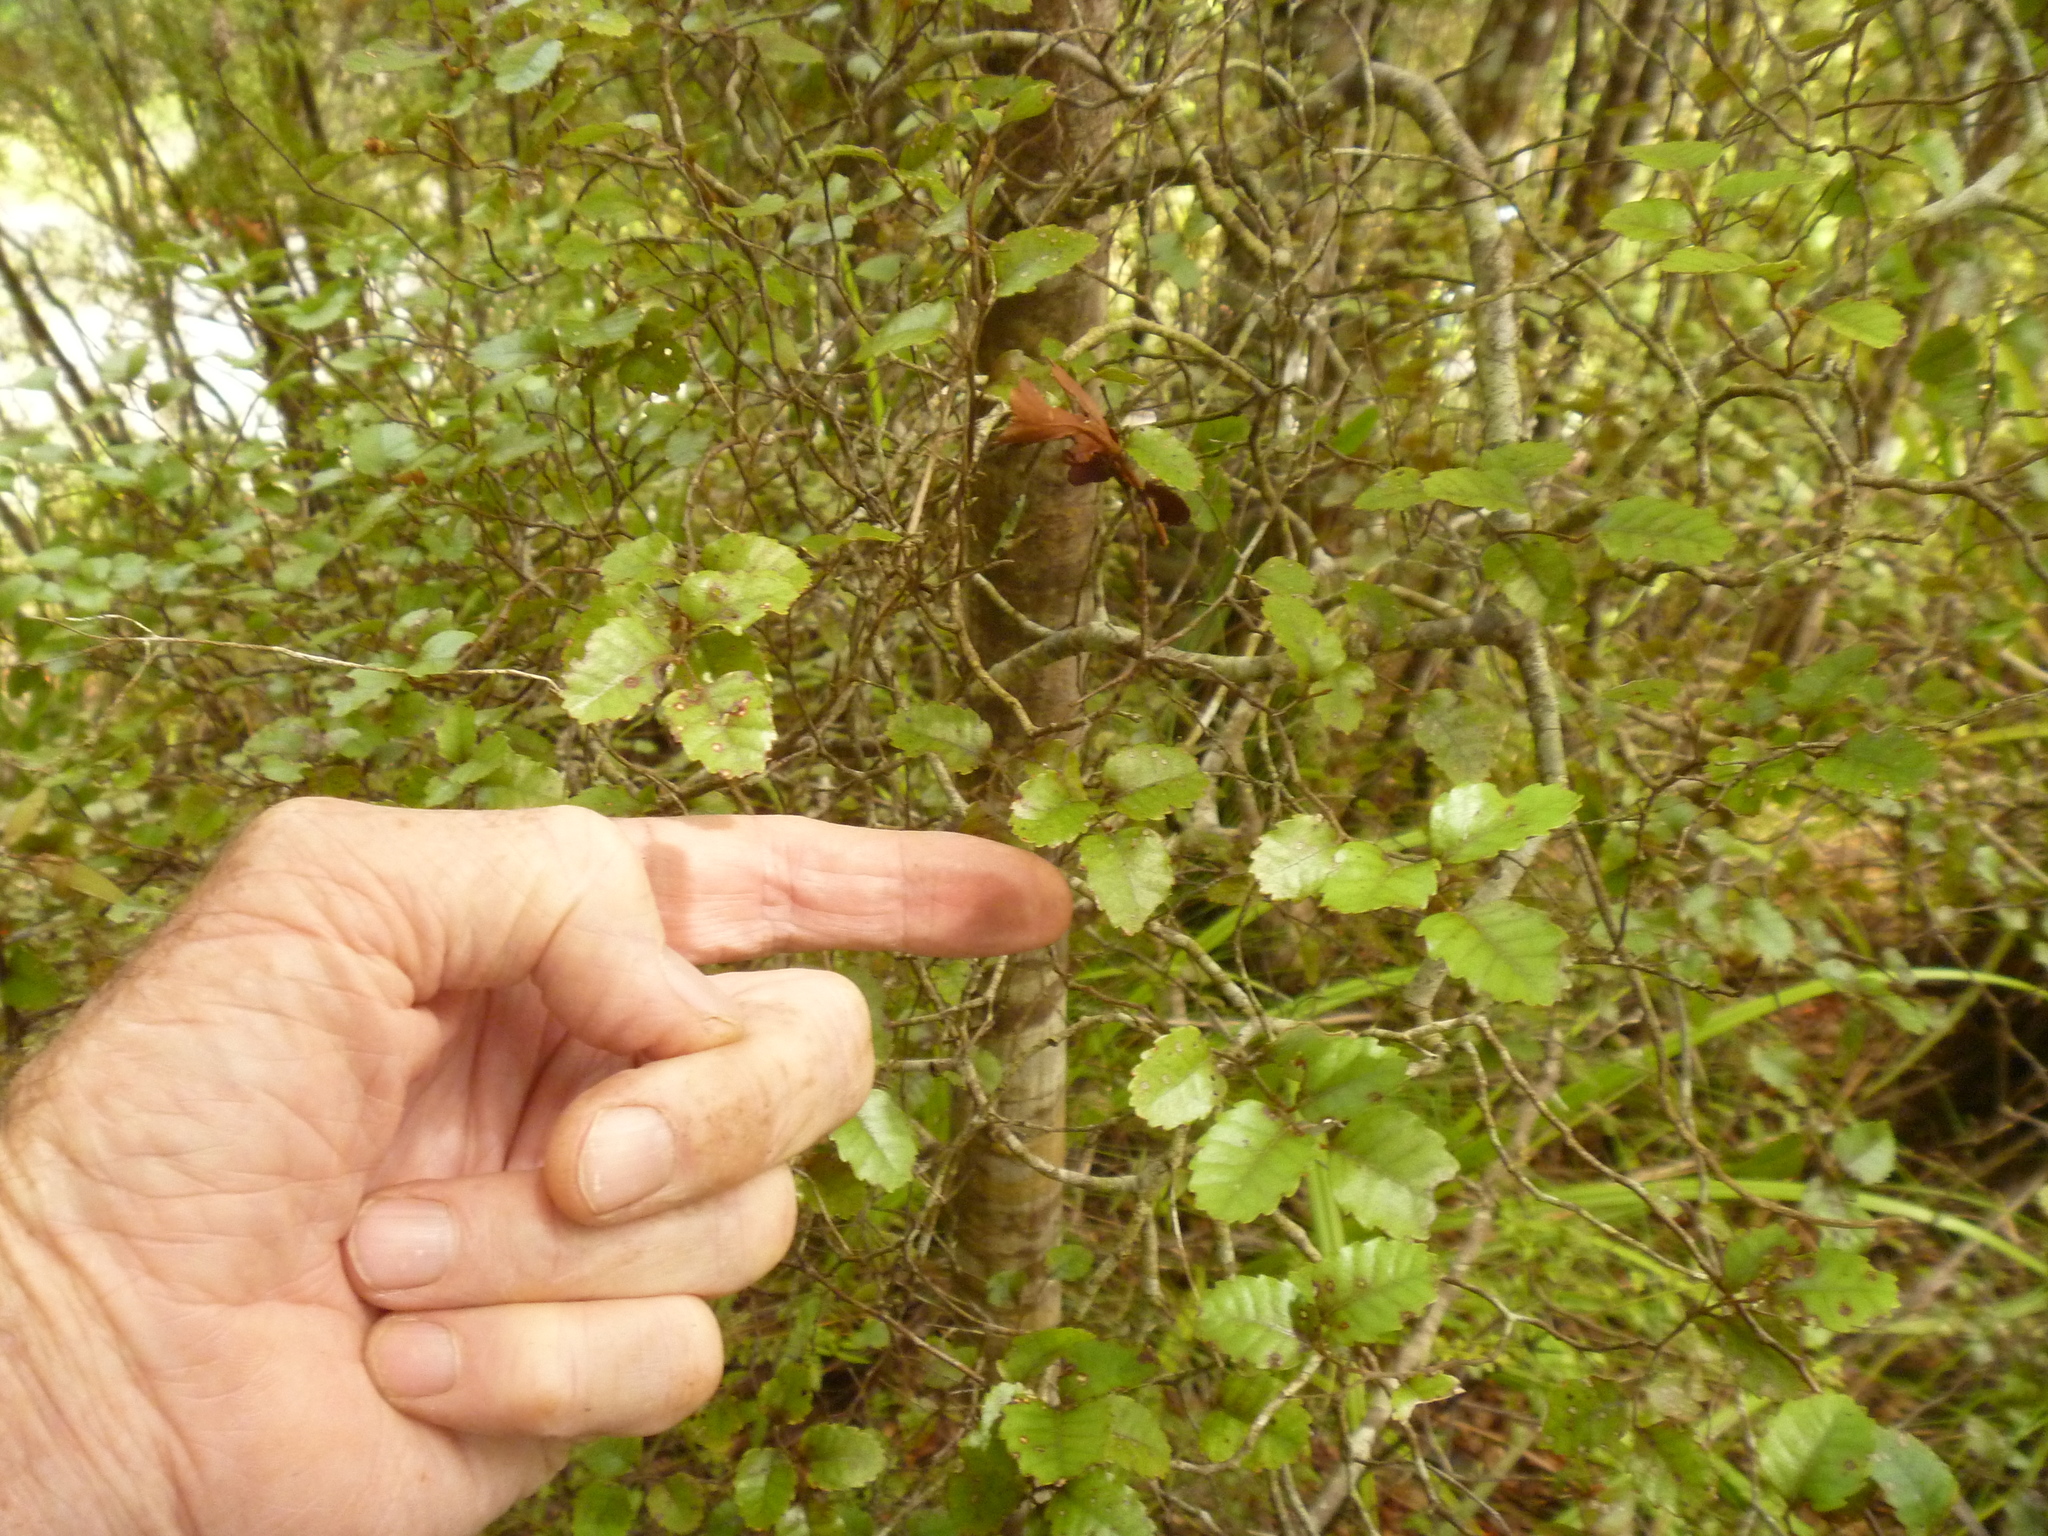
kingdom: Plantae
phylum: Tracheophyta
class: Magnoliopsida
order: Fagales
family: Nothofagaceae
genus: Nothofagus
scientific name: Nothofagus truncata
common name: Hard beech
